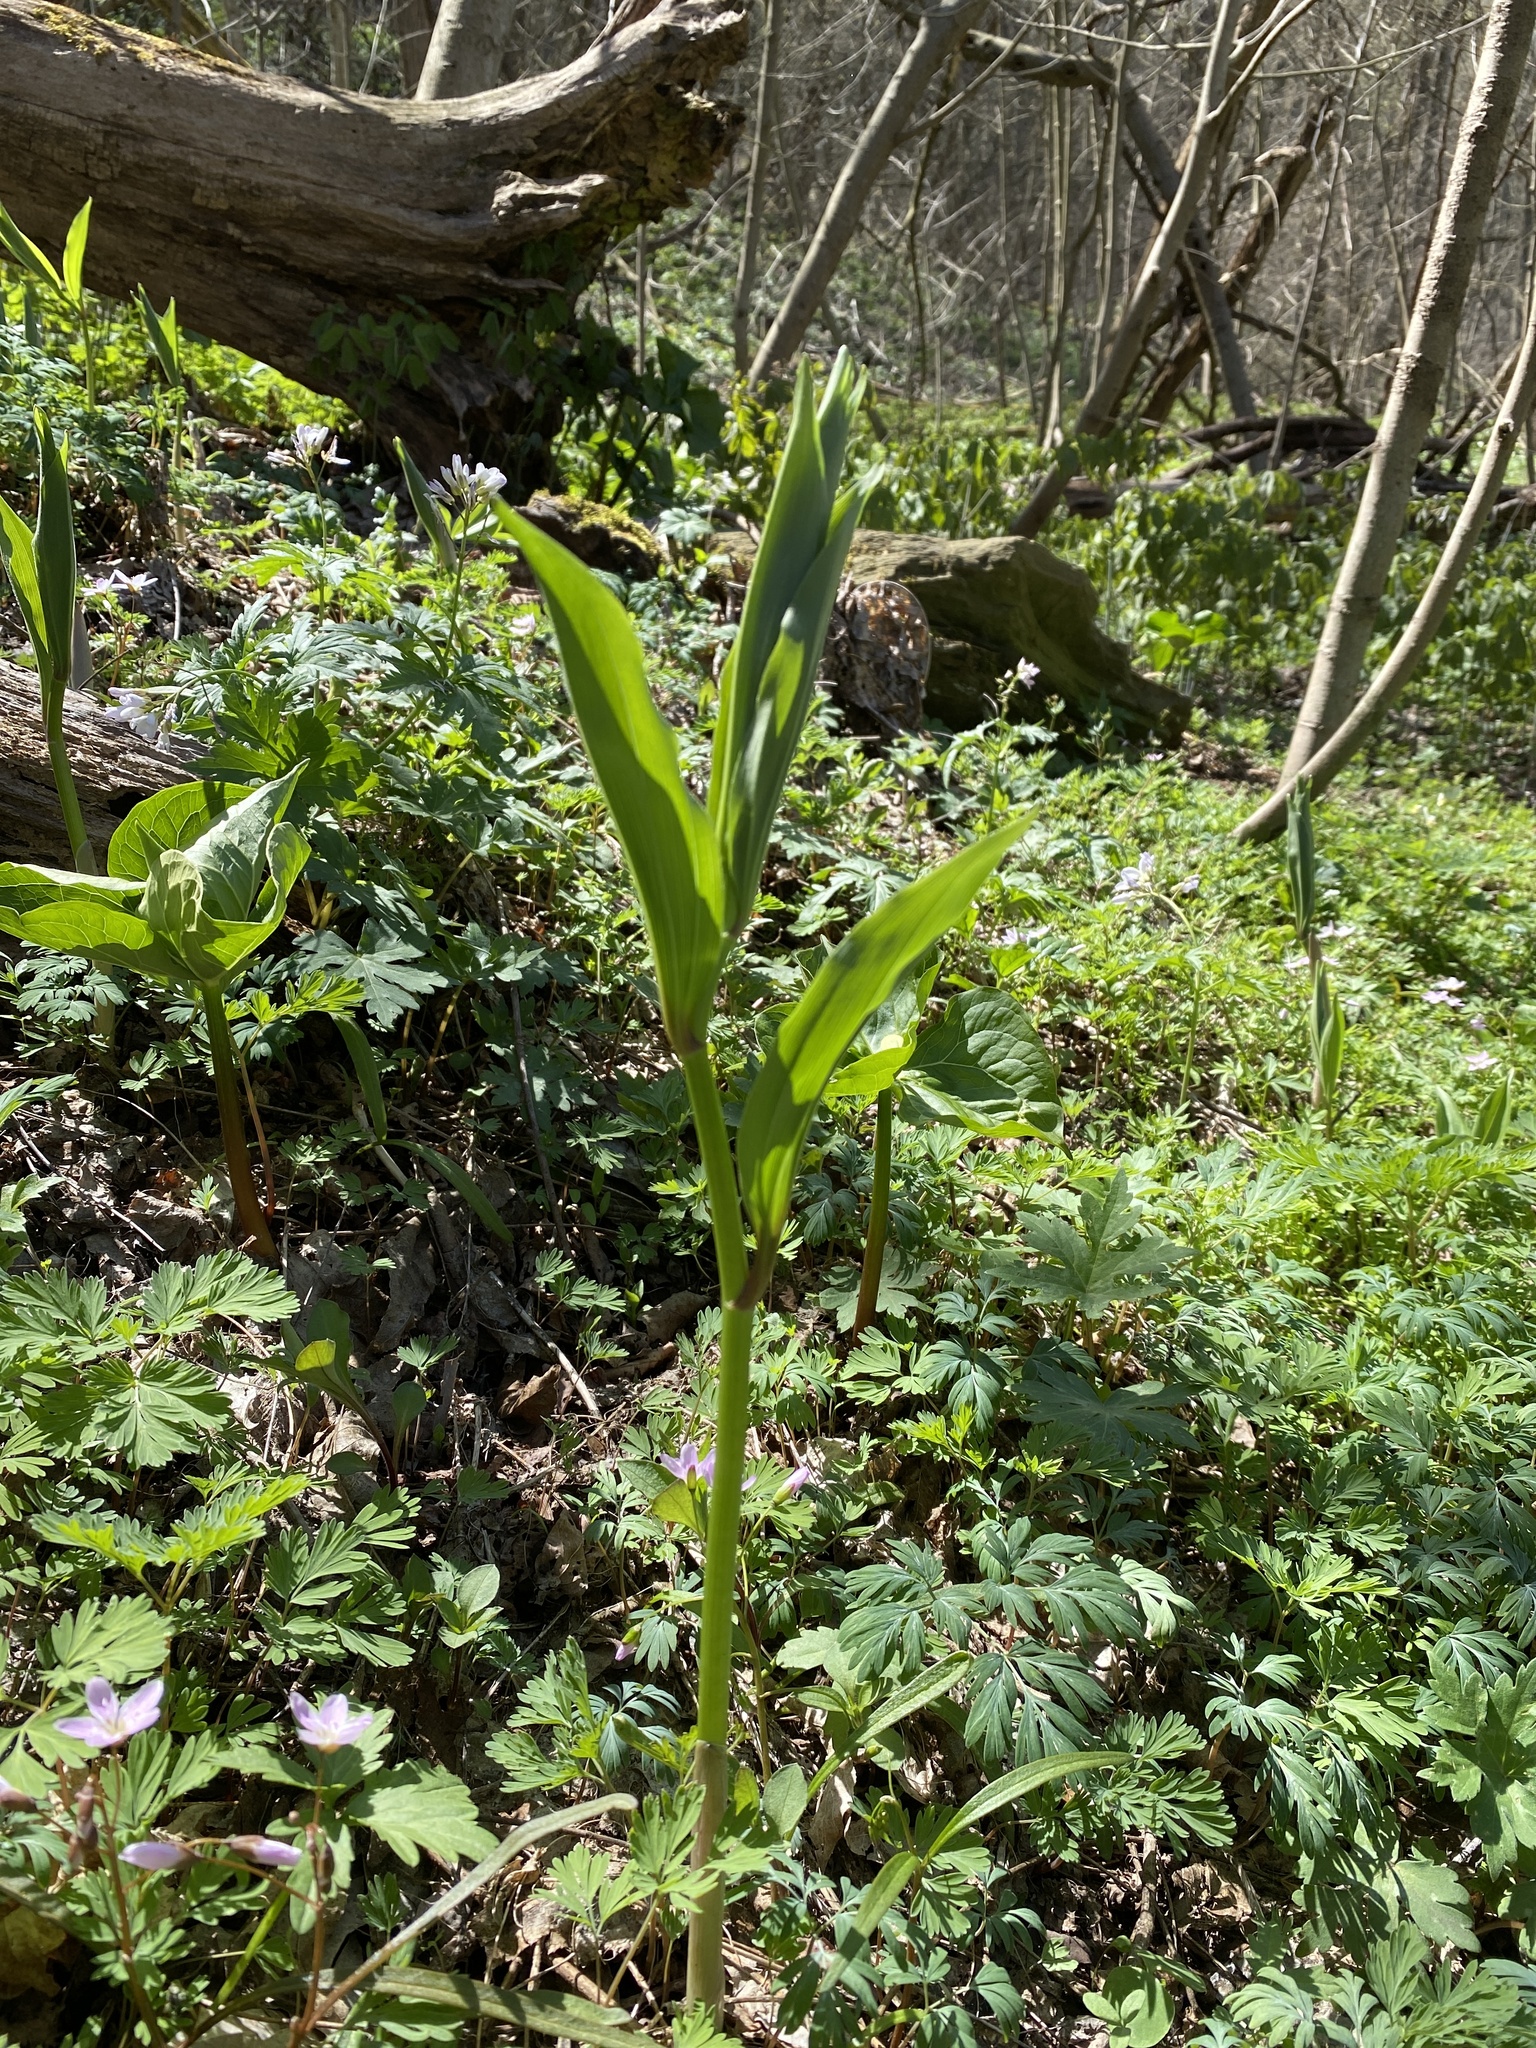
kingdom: Plantae
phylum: Tracheophyta
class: Liliopsida
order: Asparagales
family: Asparagaceae
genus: Maianthemum
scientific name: Maianthemum racemosum
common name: False spikenard
